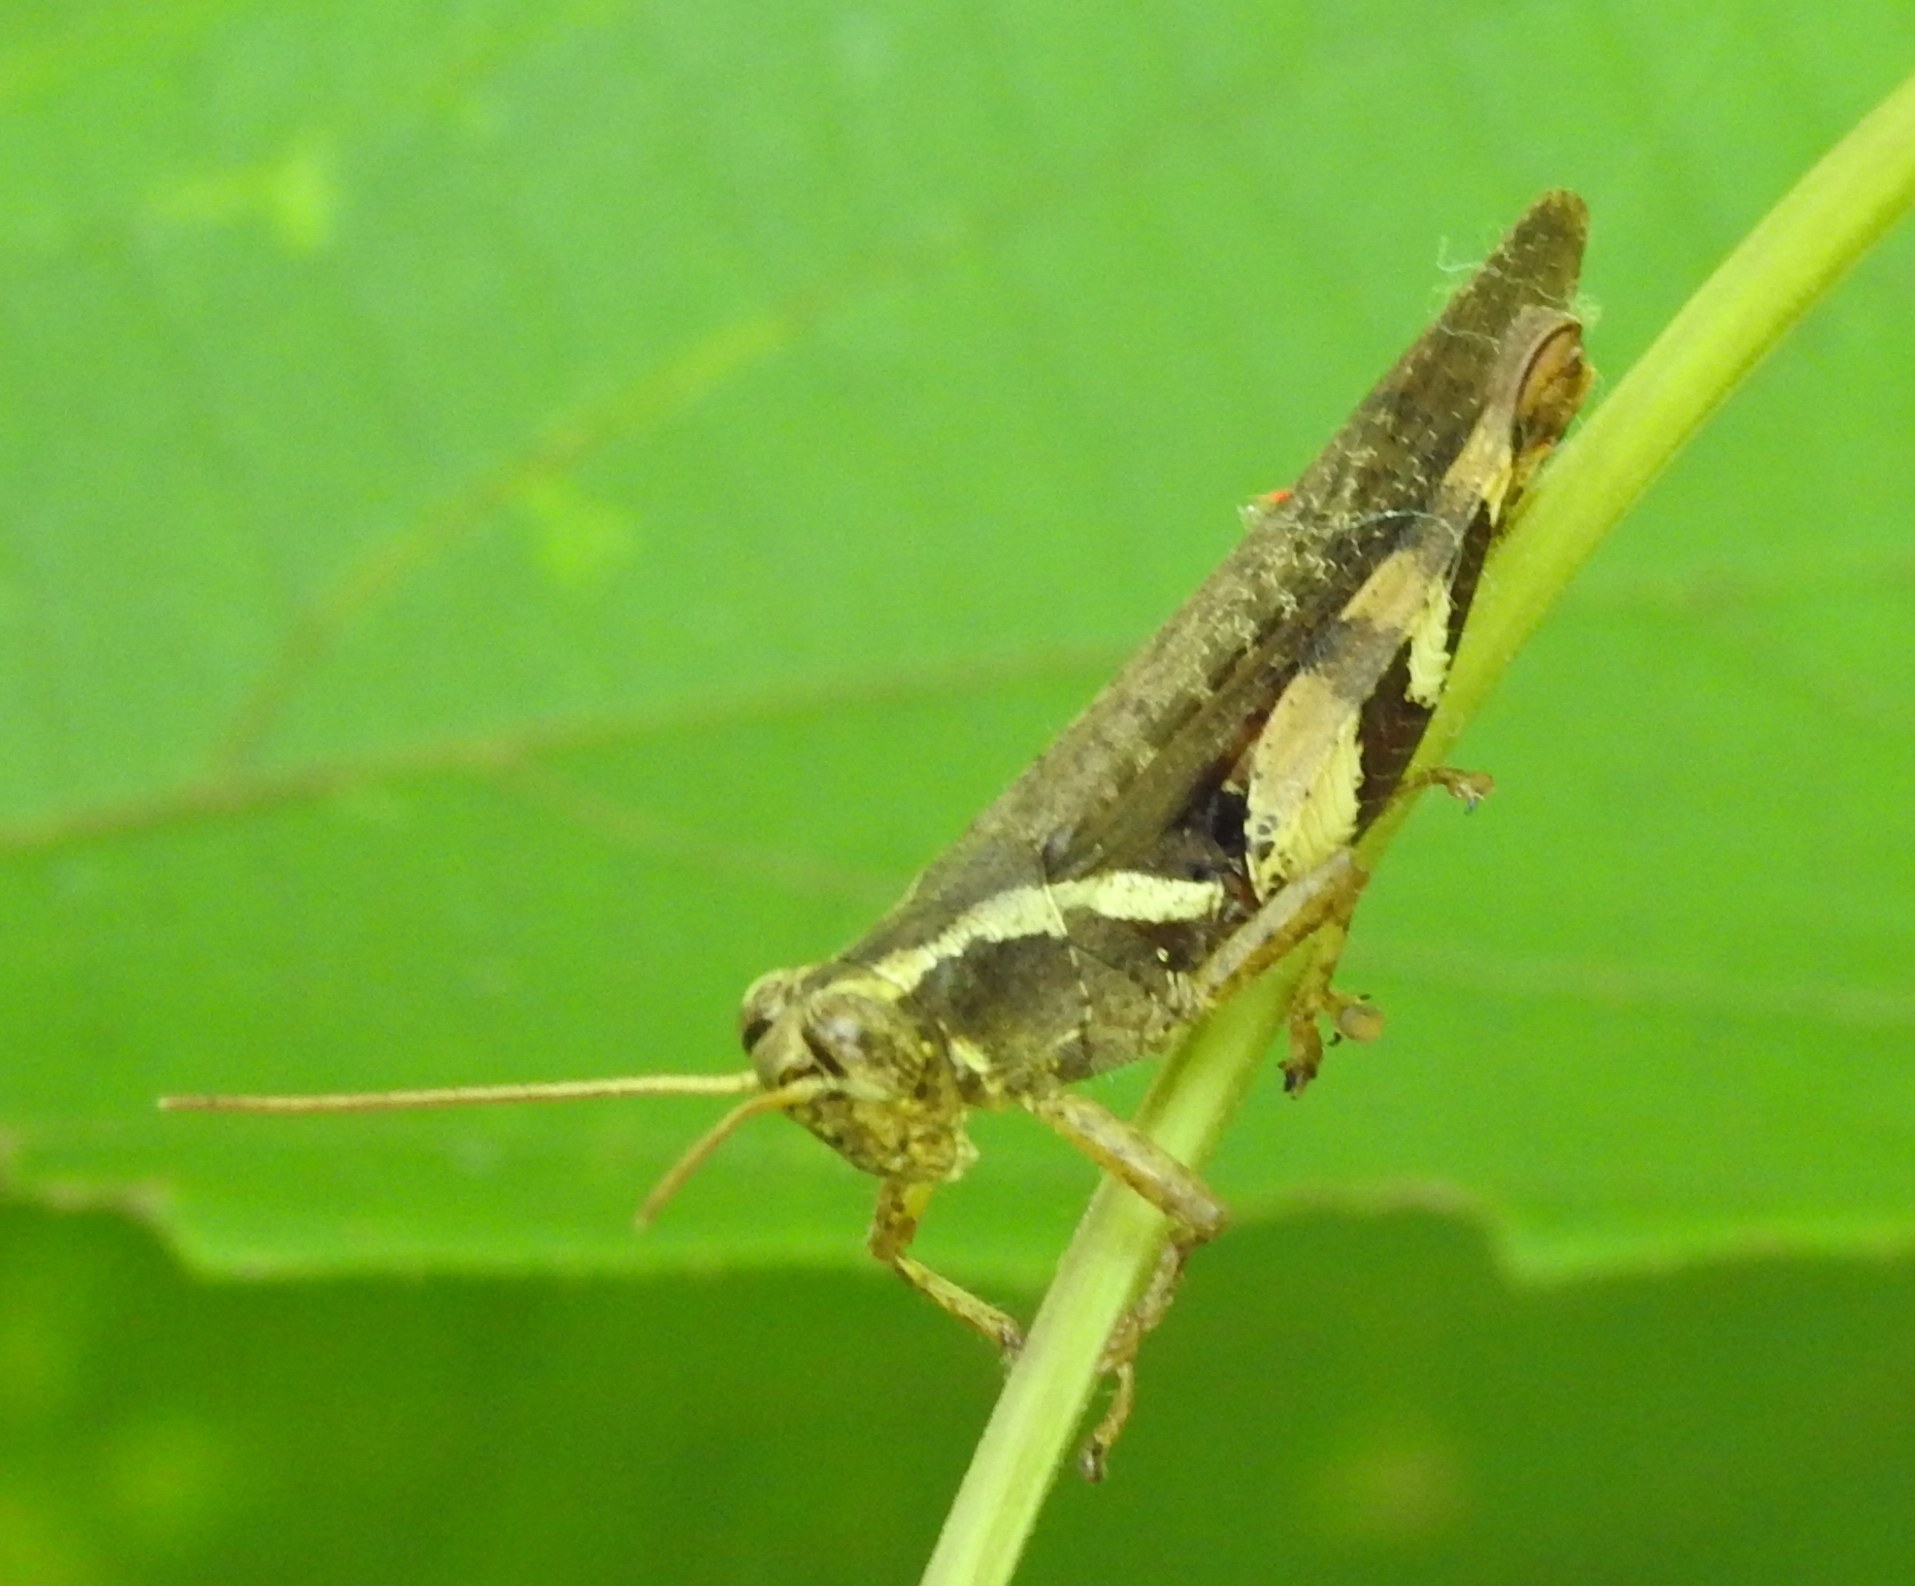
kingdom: Animalia
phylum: Arthropoda
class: Insecta
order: Orthoptera
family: Acrididae
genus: Xenocatantops
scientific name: Xenocatantops humile
